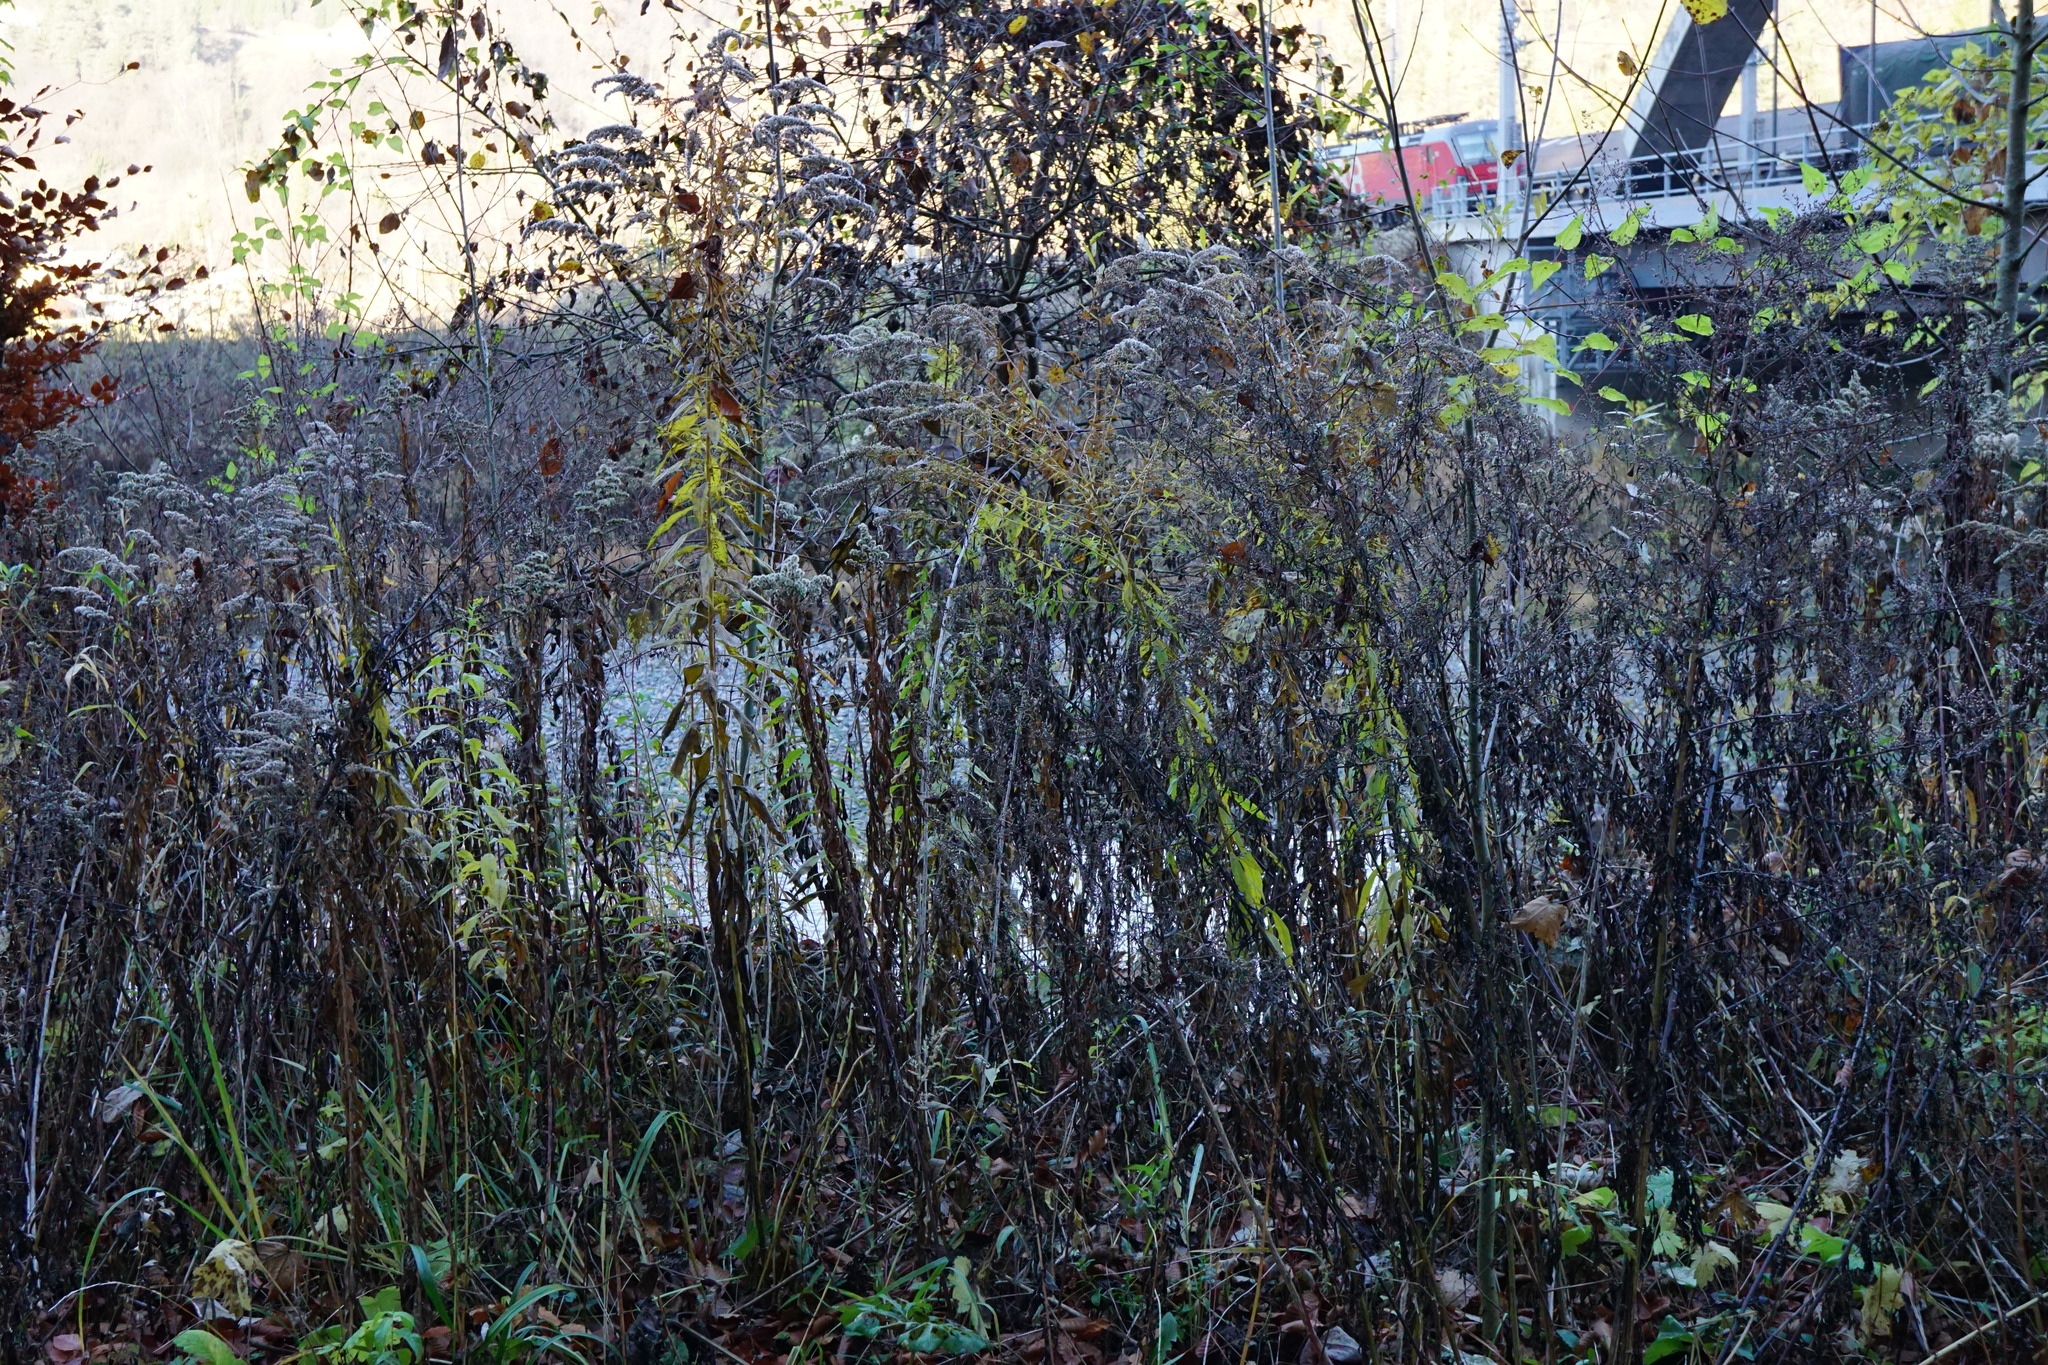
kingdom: Plantae
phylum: Tracheophyta
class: Magnoliopsida
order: Asterales
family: Asteraceae
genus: Solidago
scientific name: Solidago canadensis
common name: Canada goldenrod
